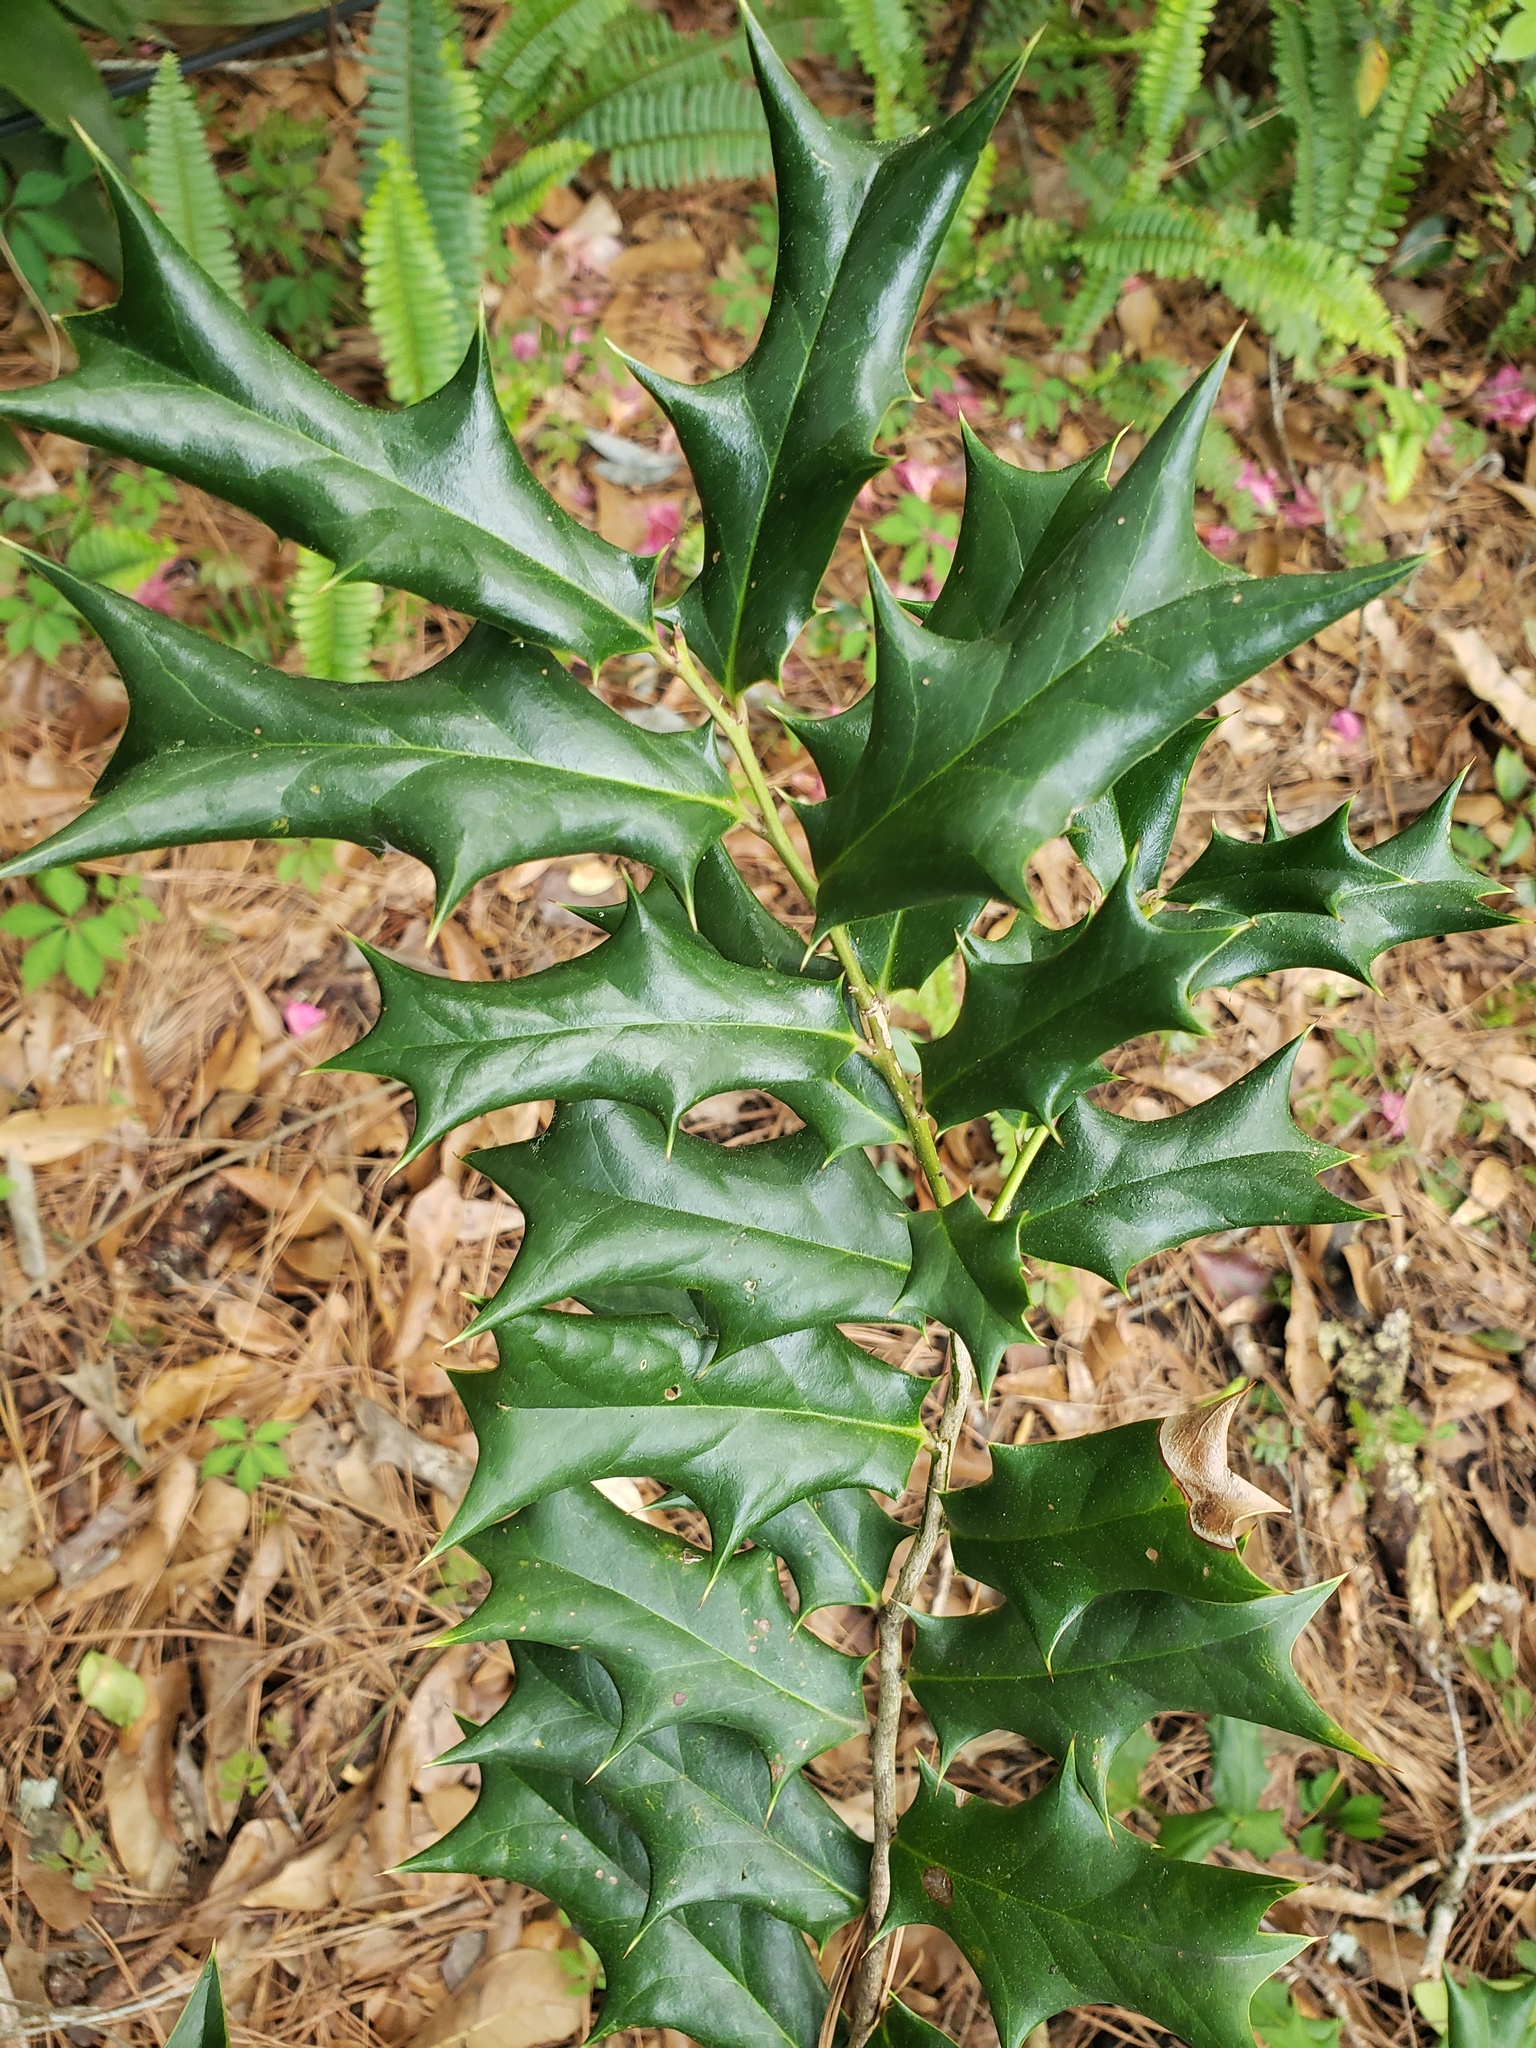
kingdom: Plantae
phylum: Tracheophyta
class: Magnoliopsida
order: Aquifoliales
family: Aquifoliaceae
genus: Ilex
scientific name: Ilex cornuta
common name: Chinese holly
